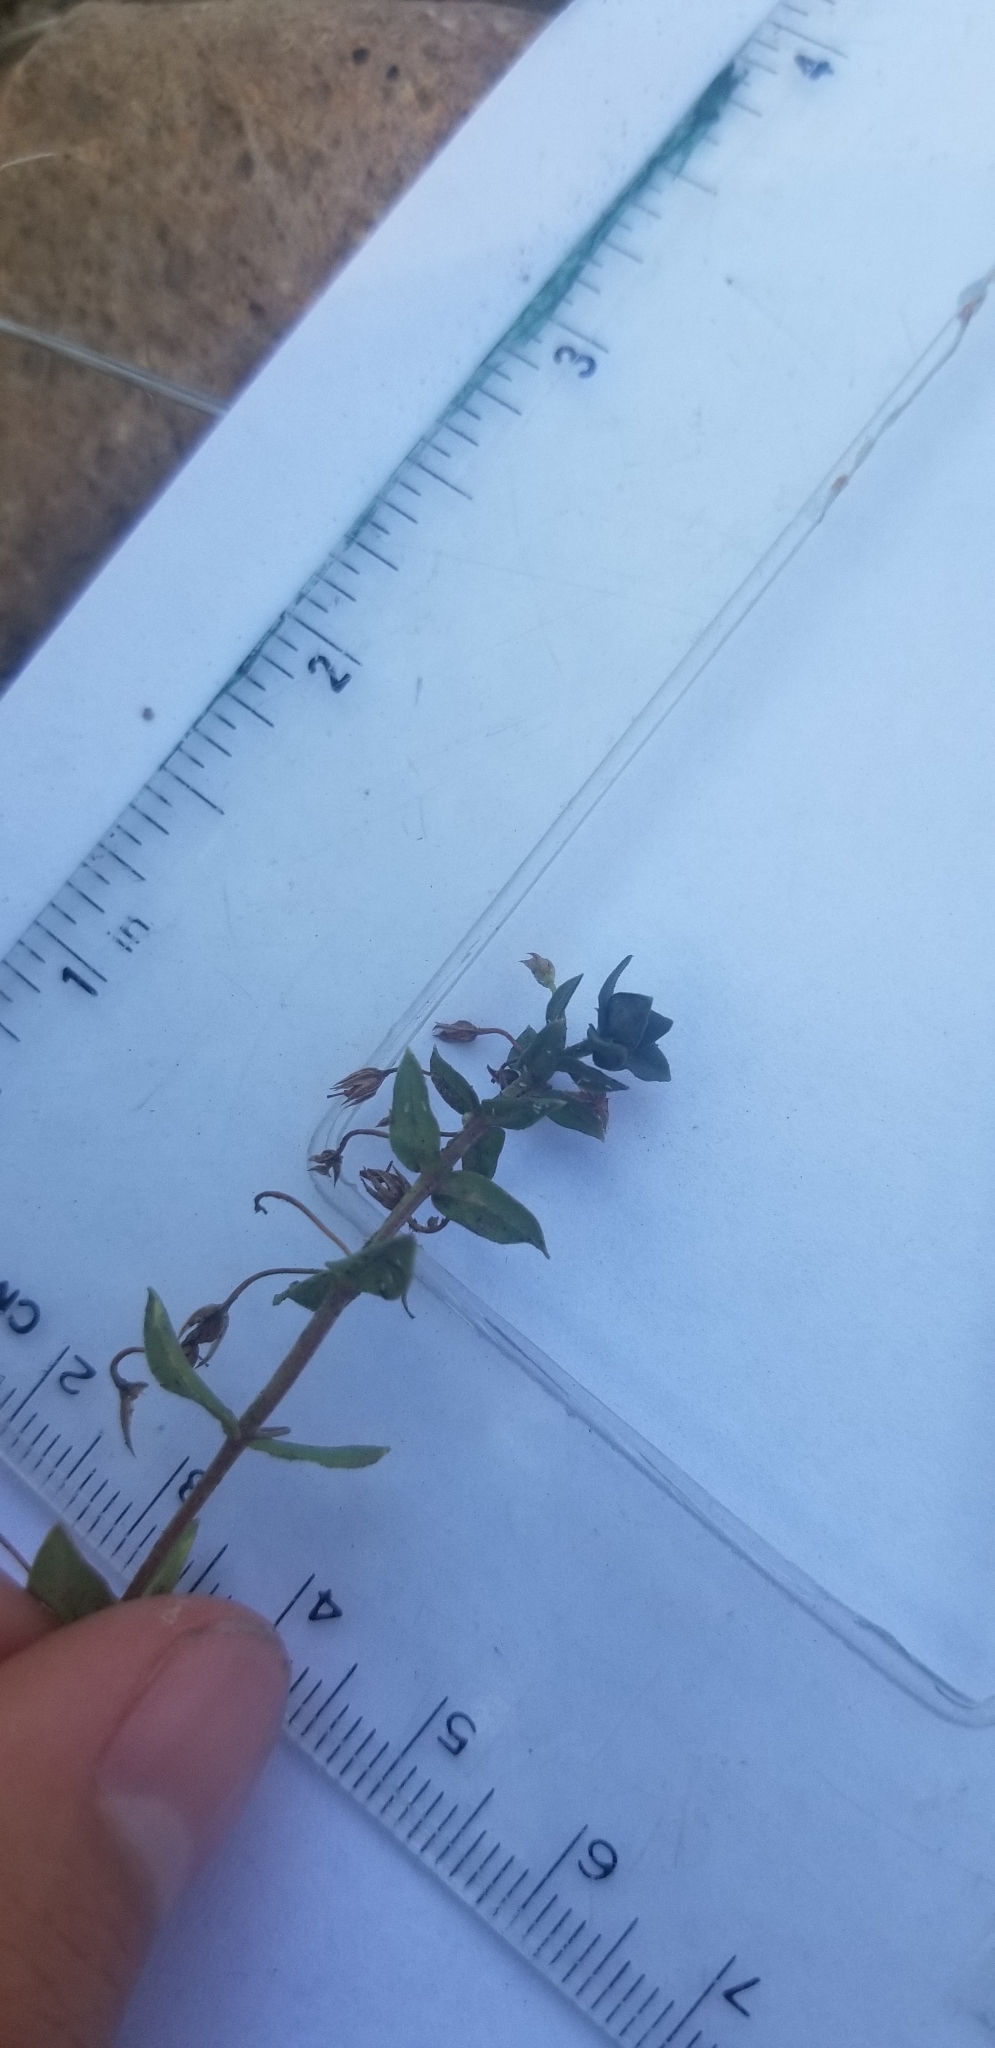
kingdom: Plantae
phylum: Tracheophyta
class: Magnoliopsida
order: Ericales
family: Primulaceae
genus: Lysimachia
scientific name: Lysimachia arvensis
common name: Scarlet pimpernel
